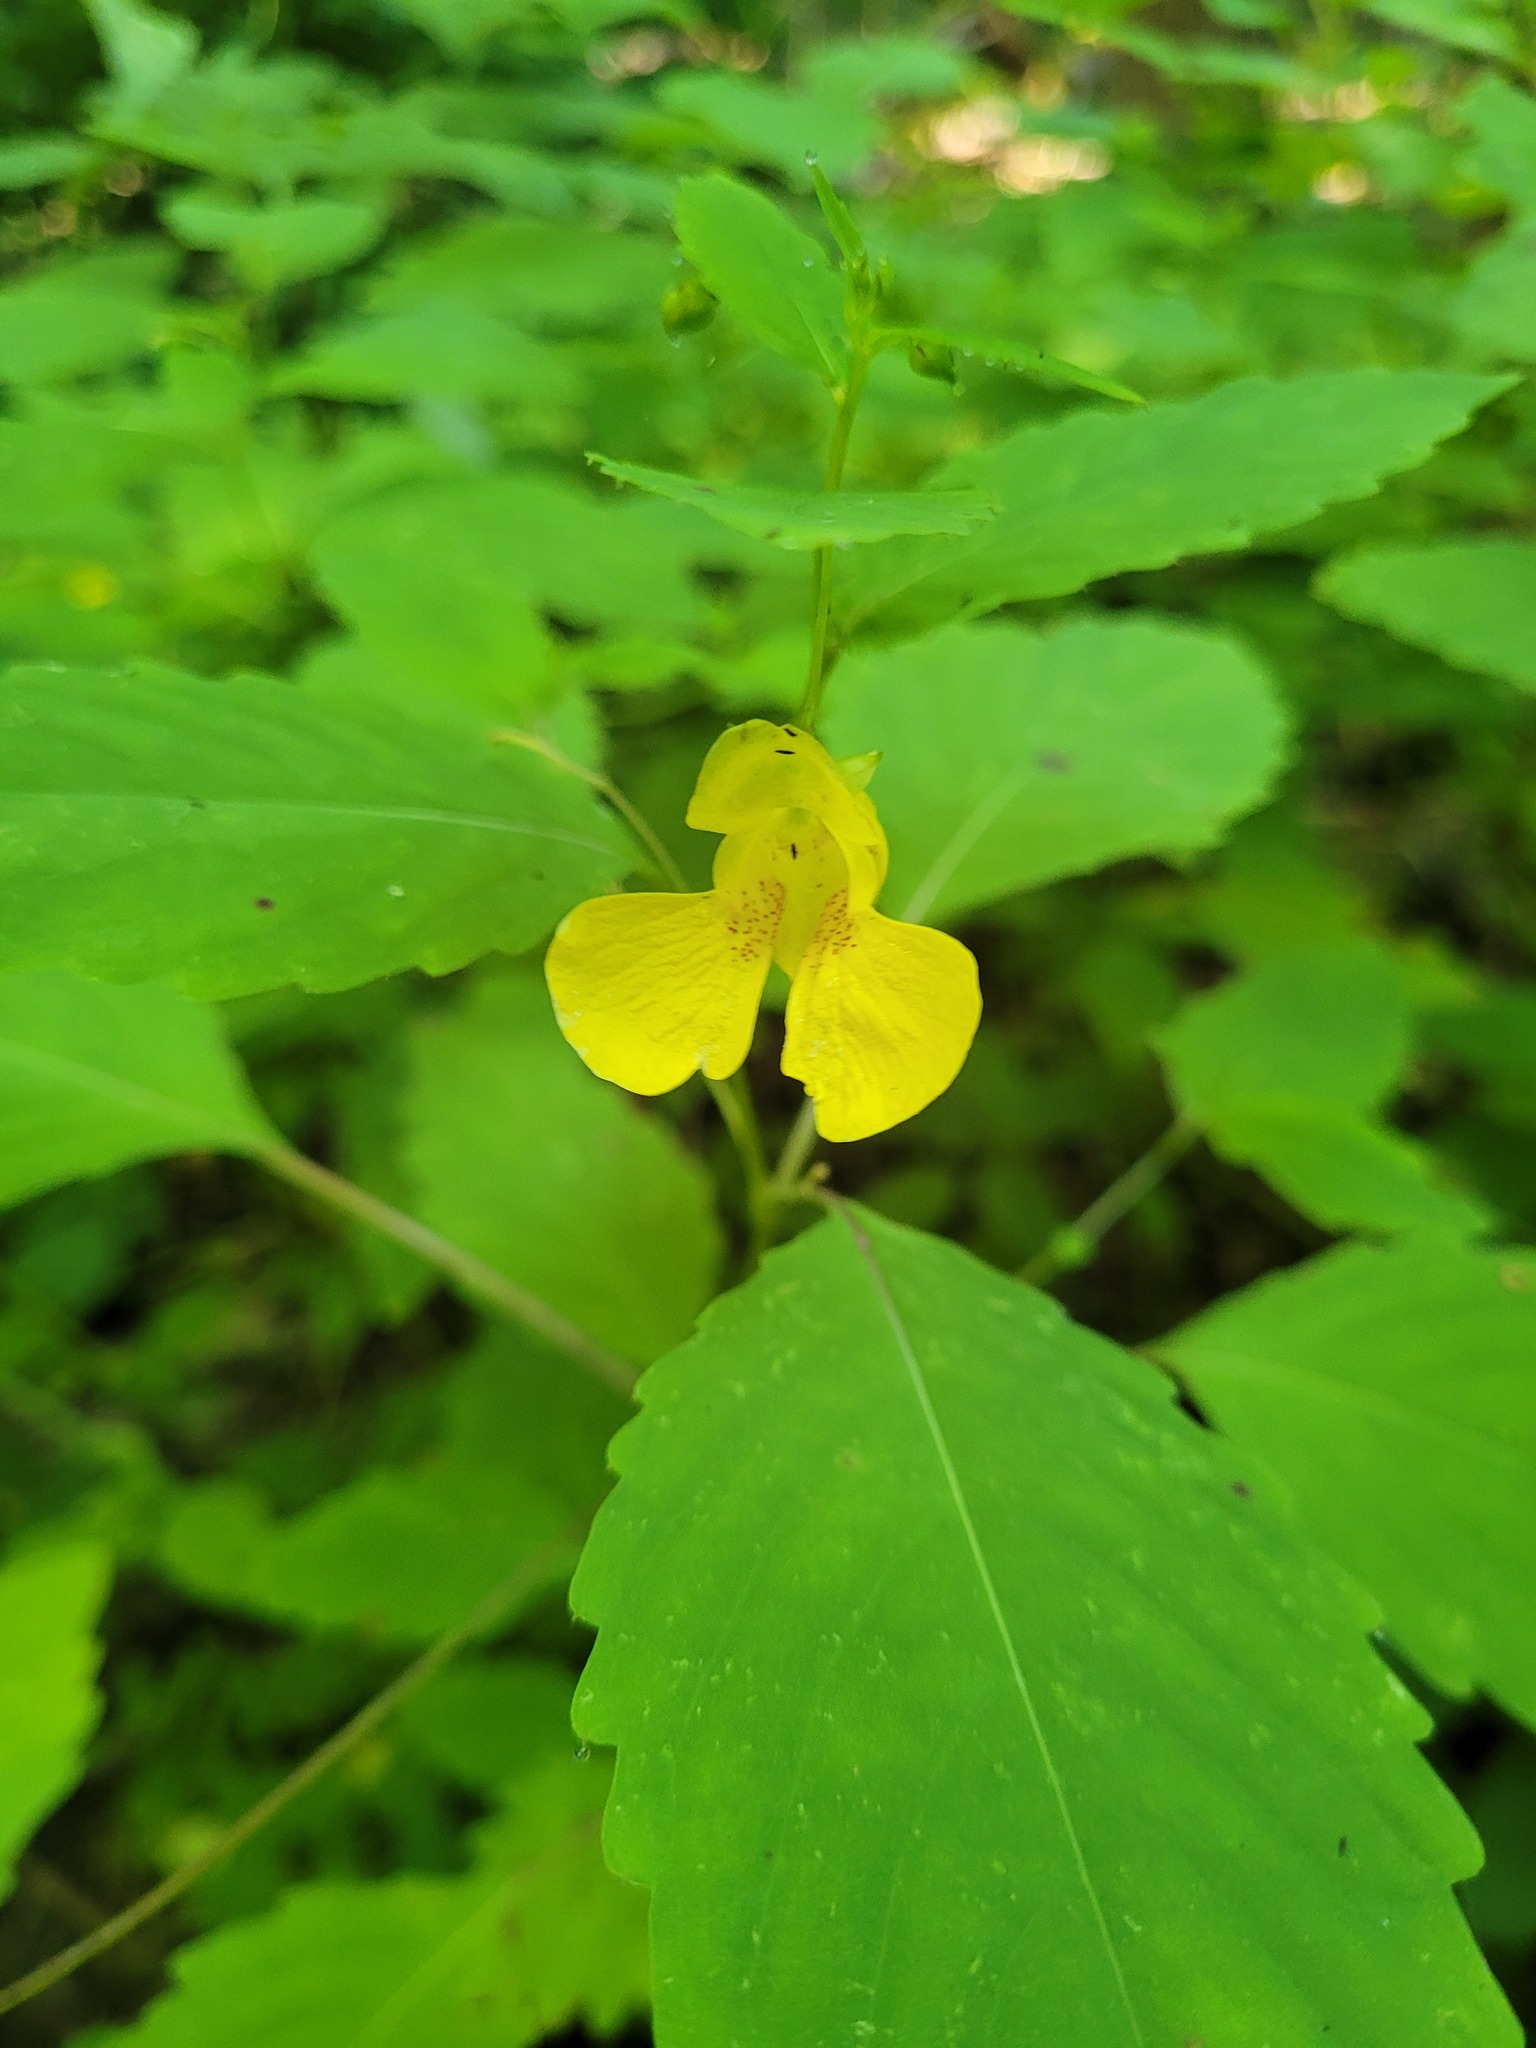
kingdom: Plantae
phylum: Tracheophyta
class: Magnoliopsida
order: Ericales
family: Balsaminaceae
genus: Impatiens
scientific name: Impatiens pallida
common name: Pale snapweed
